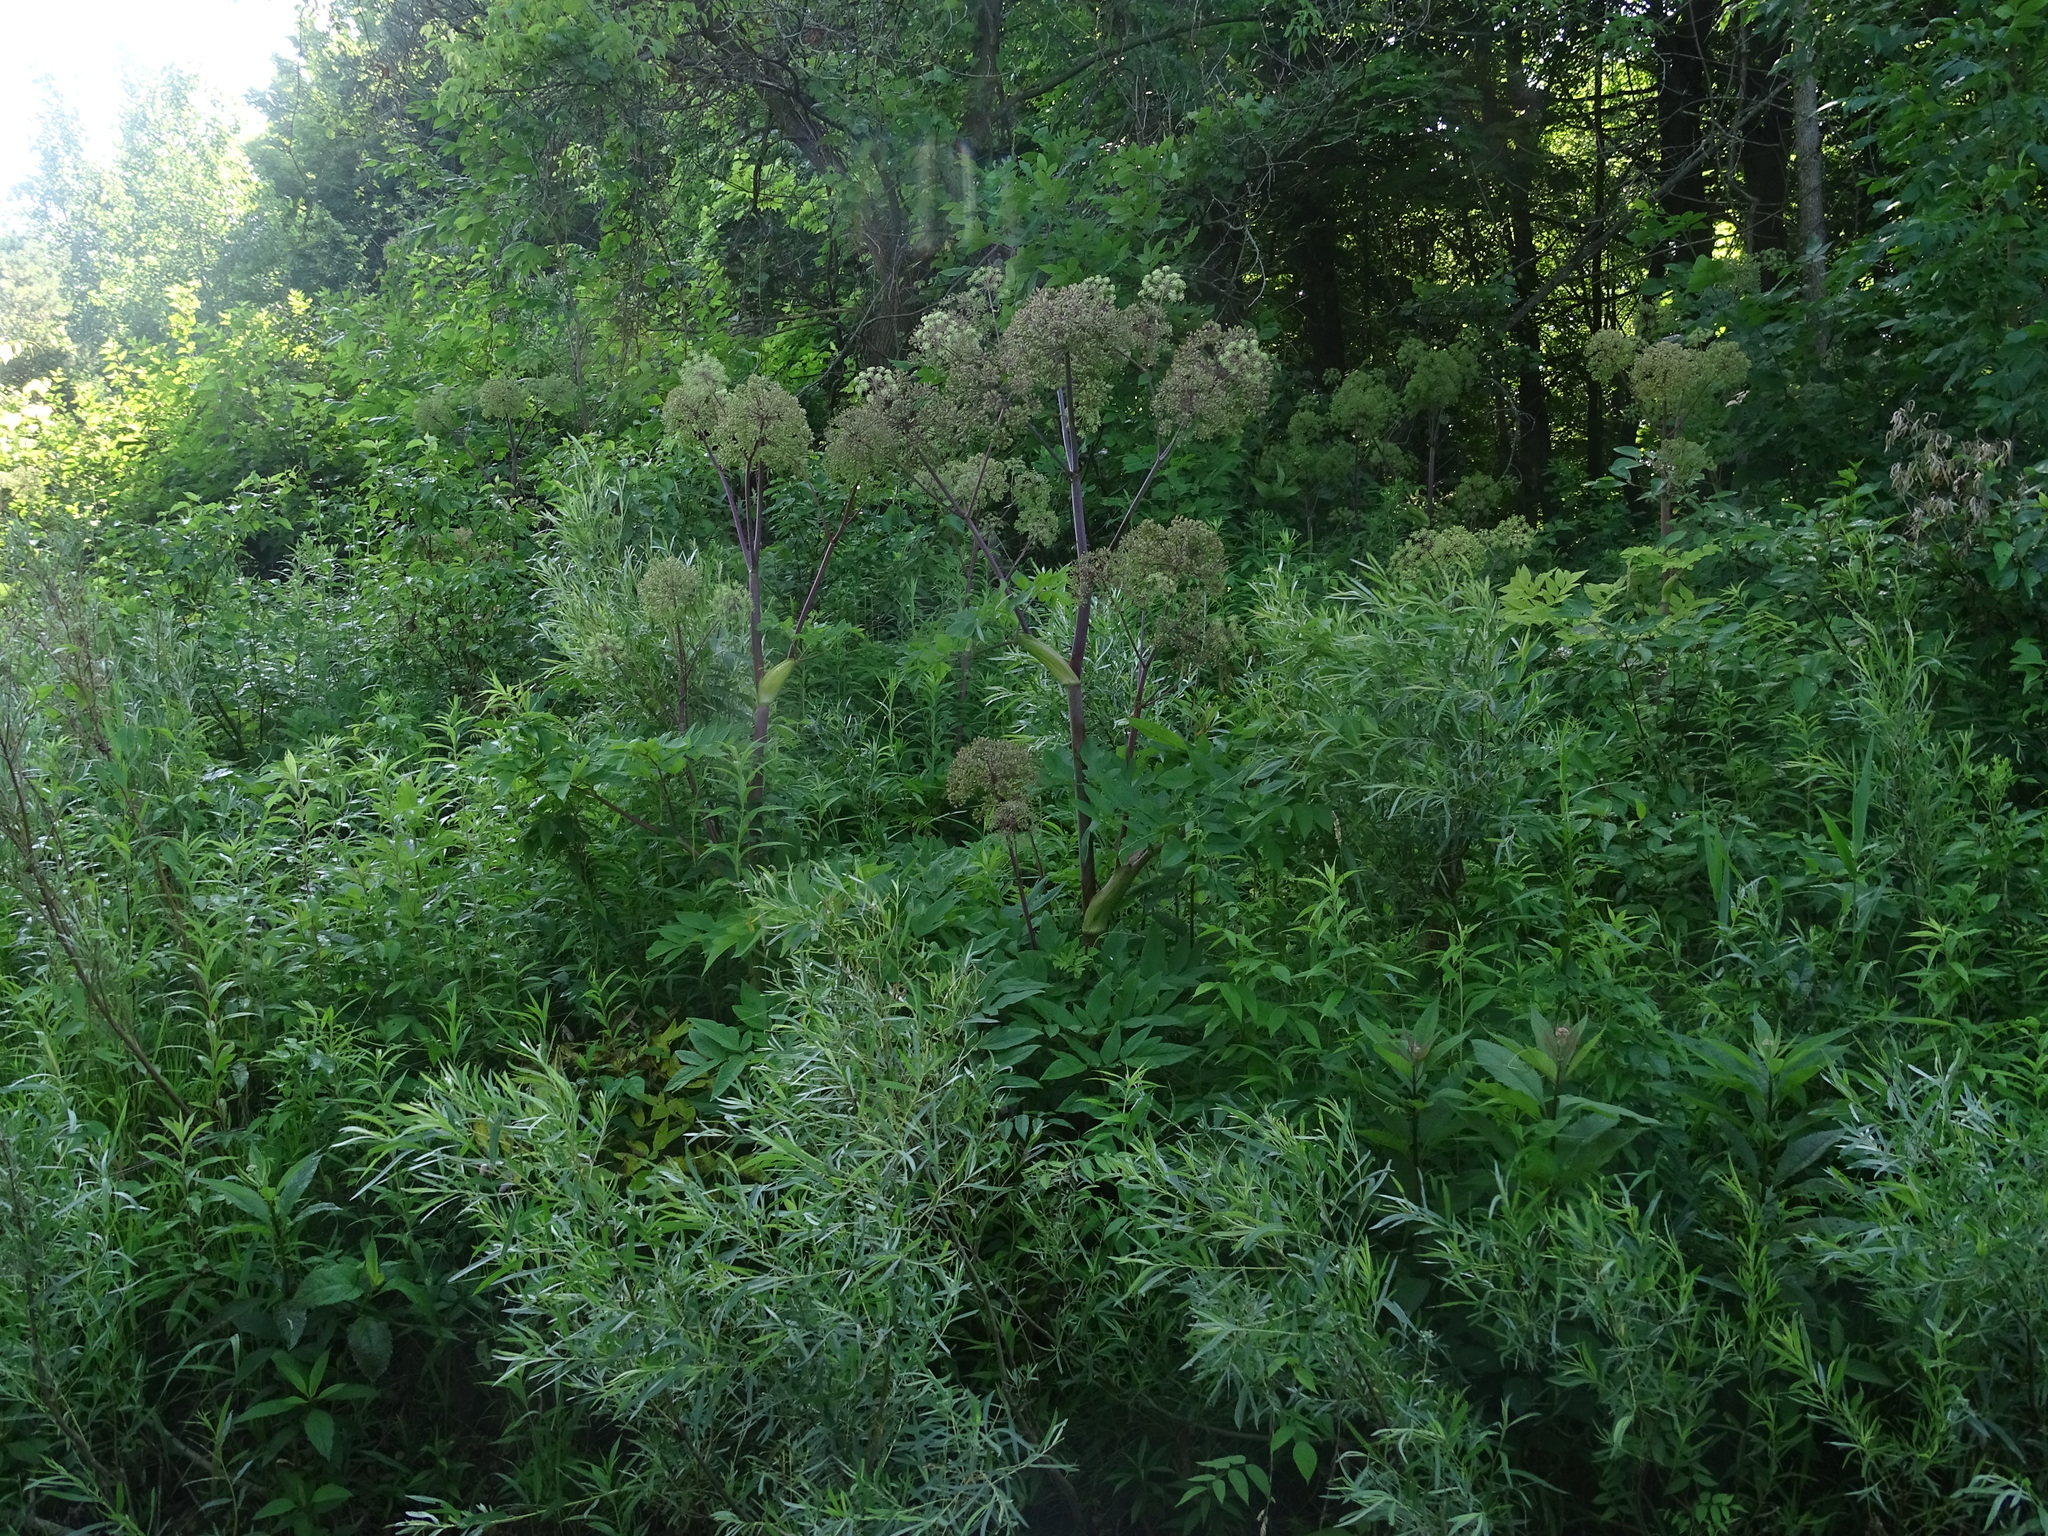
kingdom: Plantae
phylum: Tracheophyta
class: Magnoliopsida
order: Apiales
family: Apiaceae
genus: Angelica
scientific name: Angelica atropurpurea
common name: Great angelica
